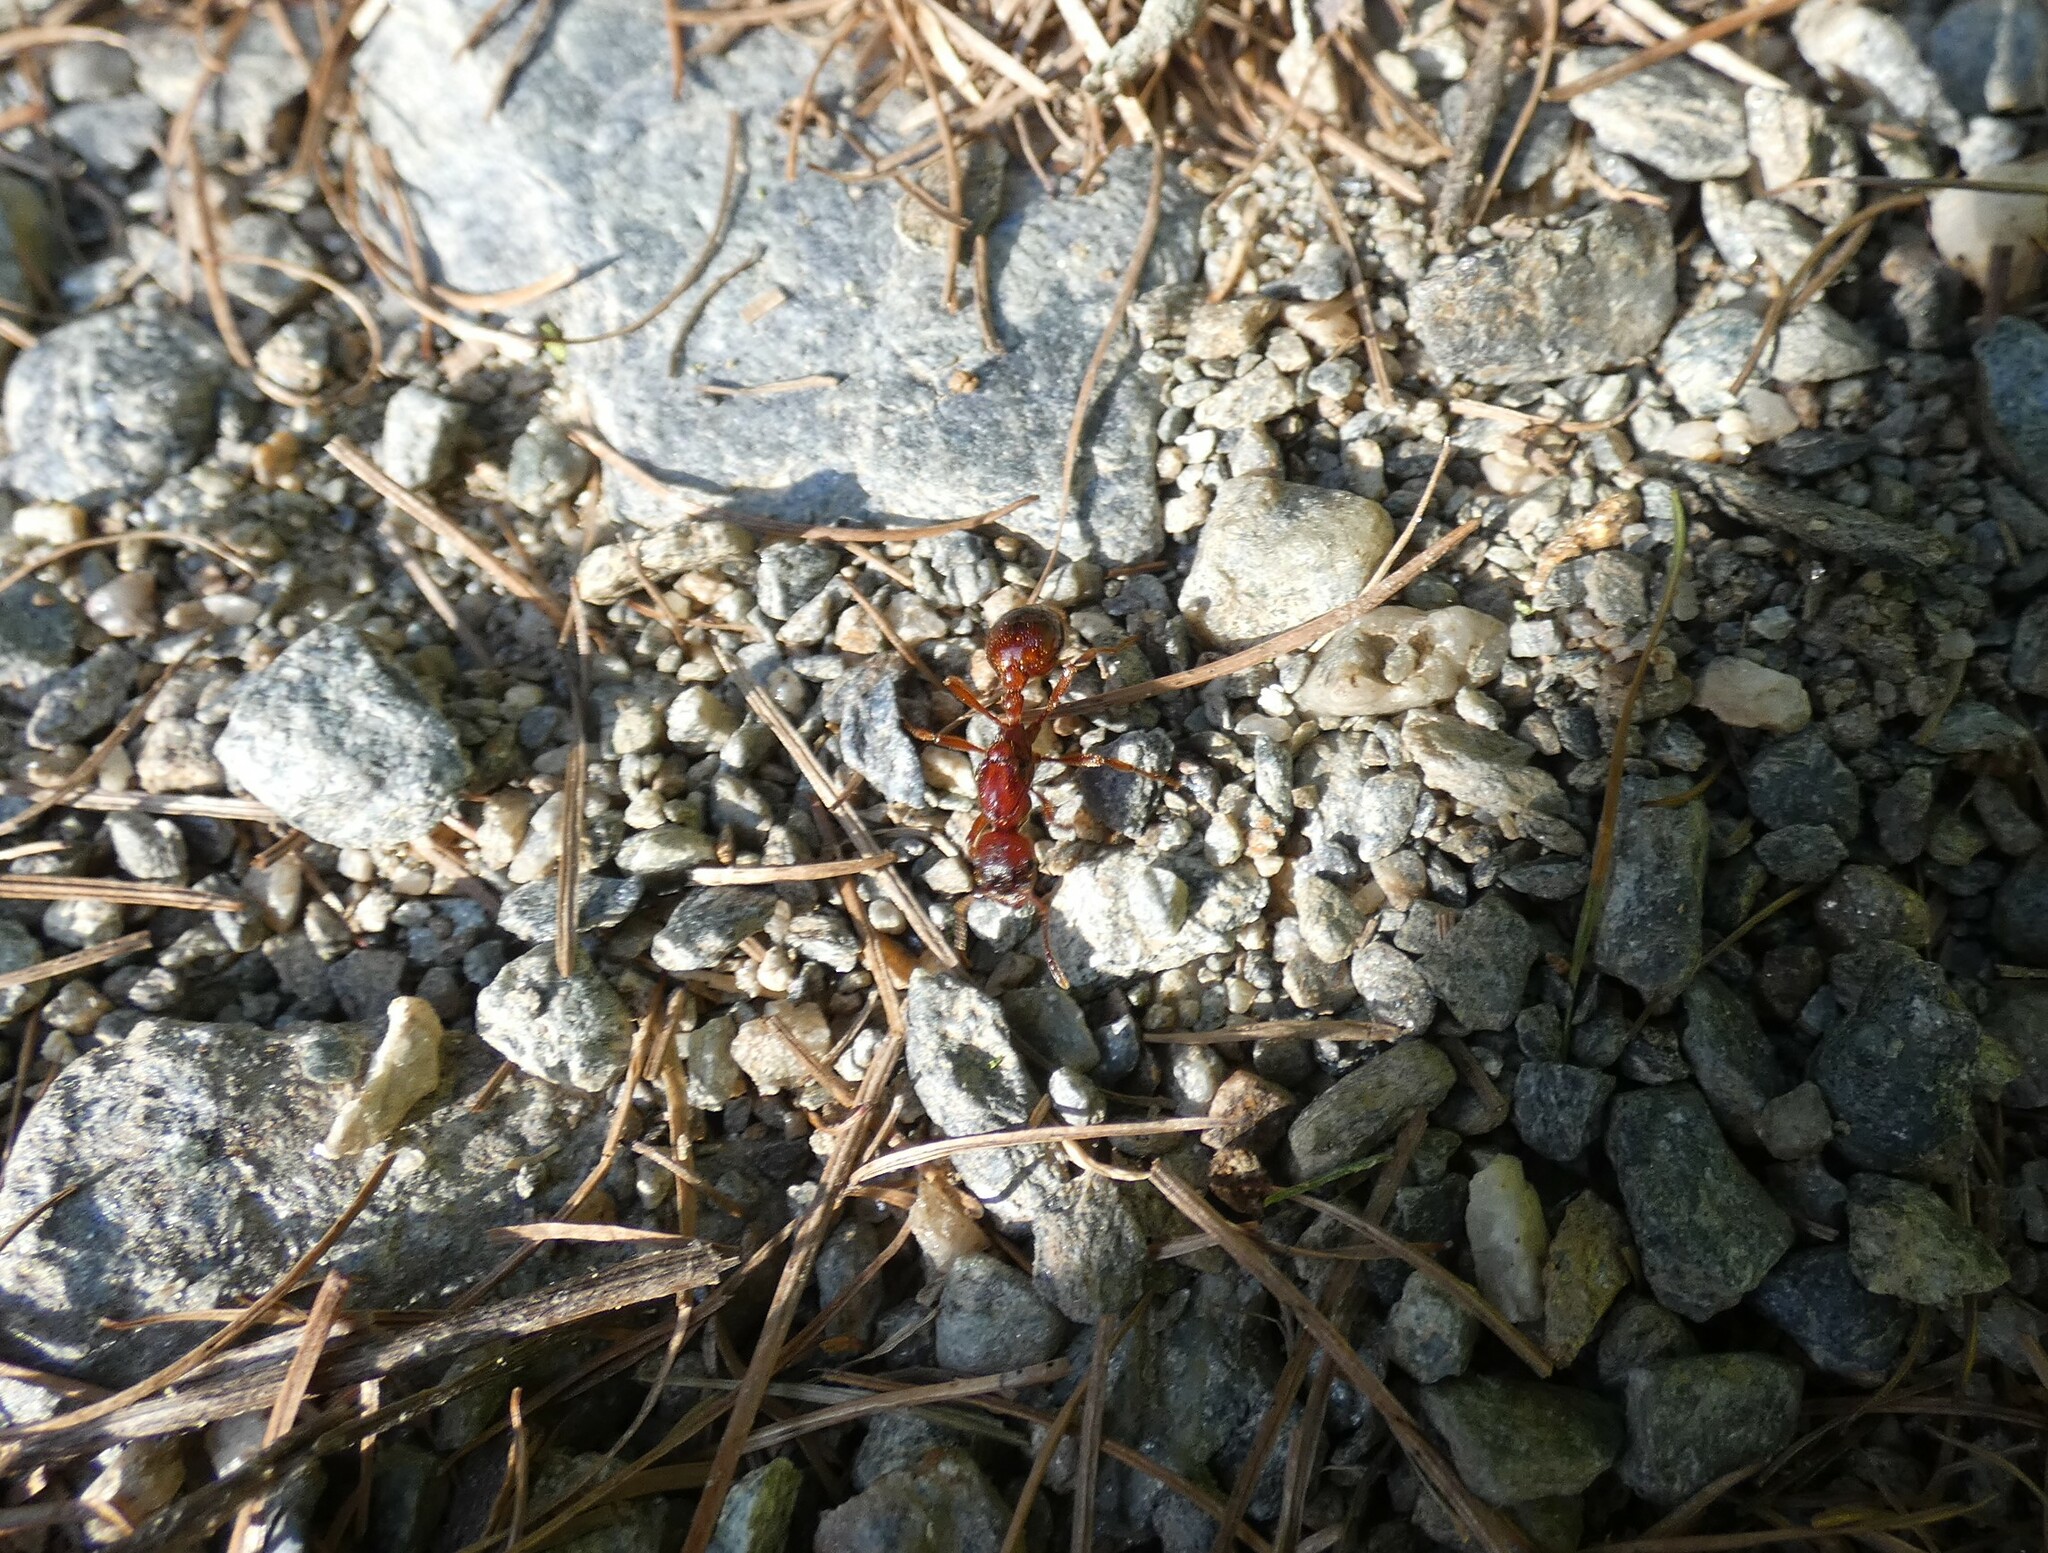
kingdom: Animalia
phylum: Arthropoda
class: Insecta
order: Hymenoptera
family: Formicidae
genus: Manica
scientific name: Manica rubida
